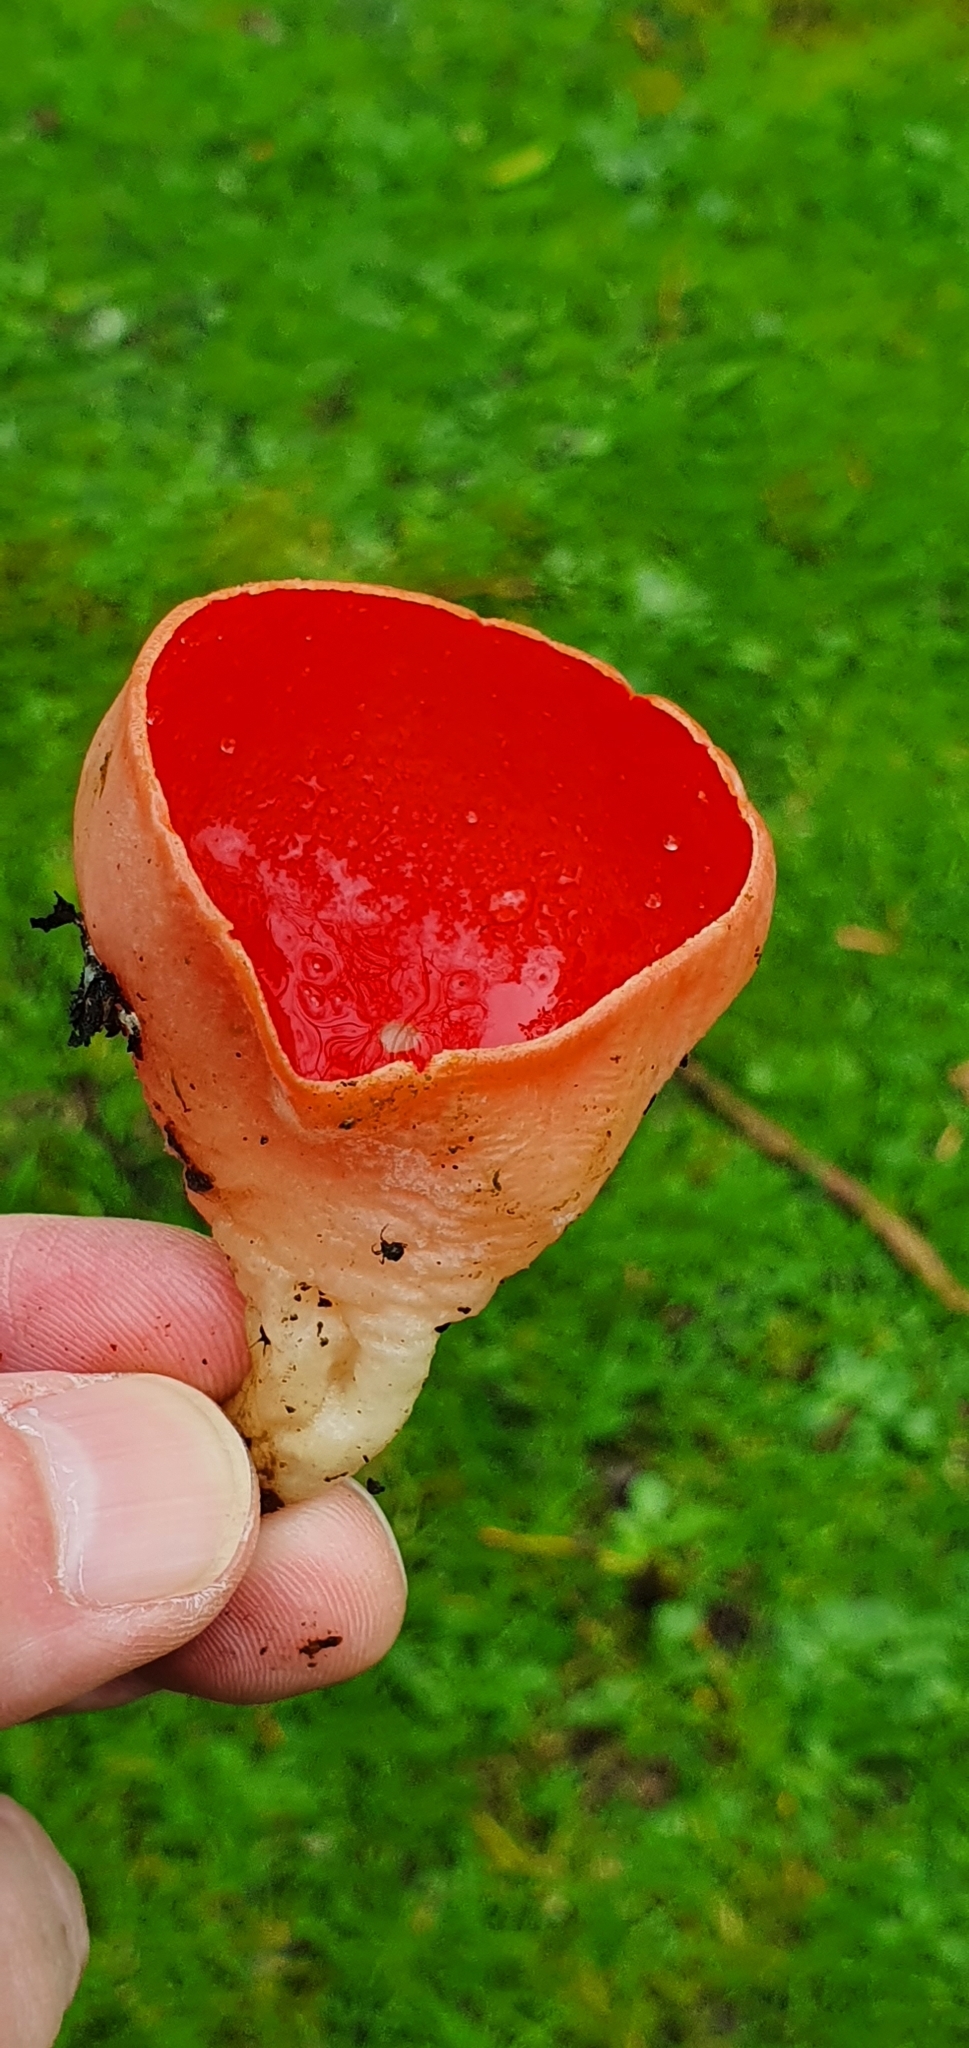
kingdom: Fungi
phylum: Ascomycota
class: Pezizomycetes
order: Pezizales
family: Sarcoscyphaceae
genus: Sarcoscypha
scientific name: Sarcoscypha
